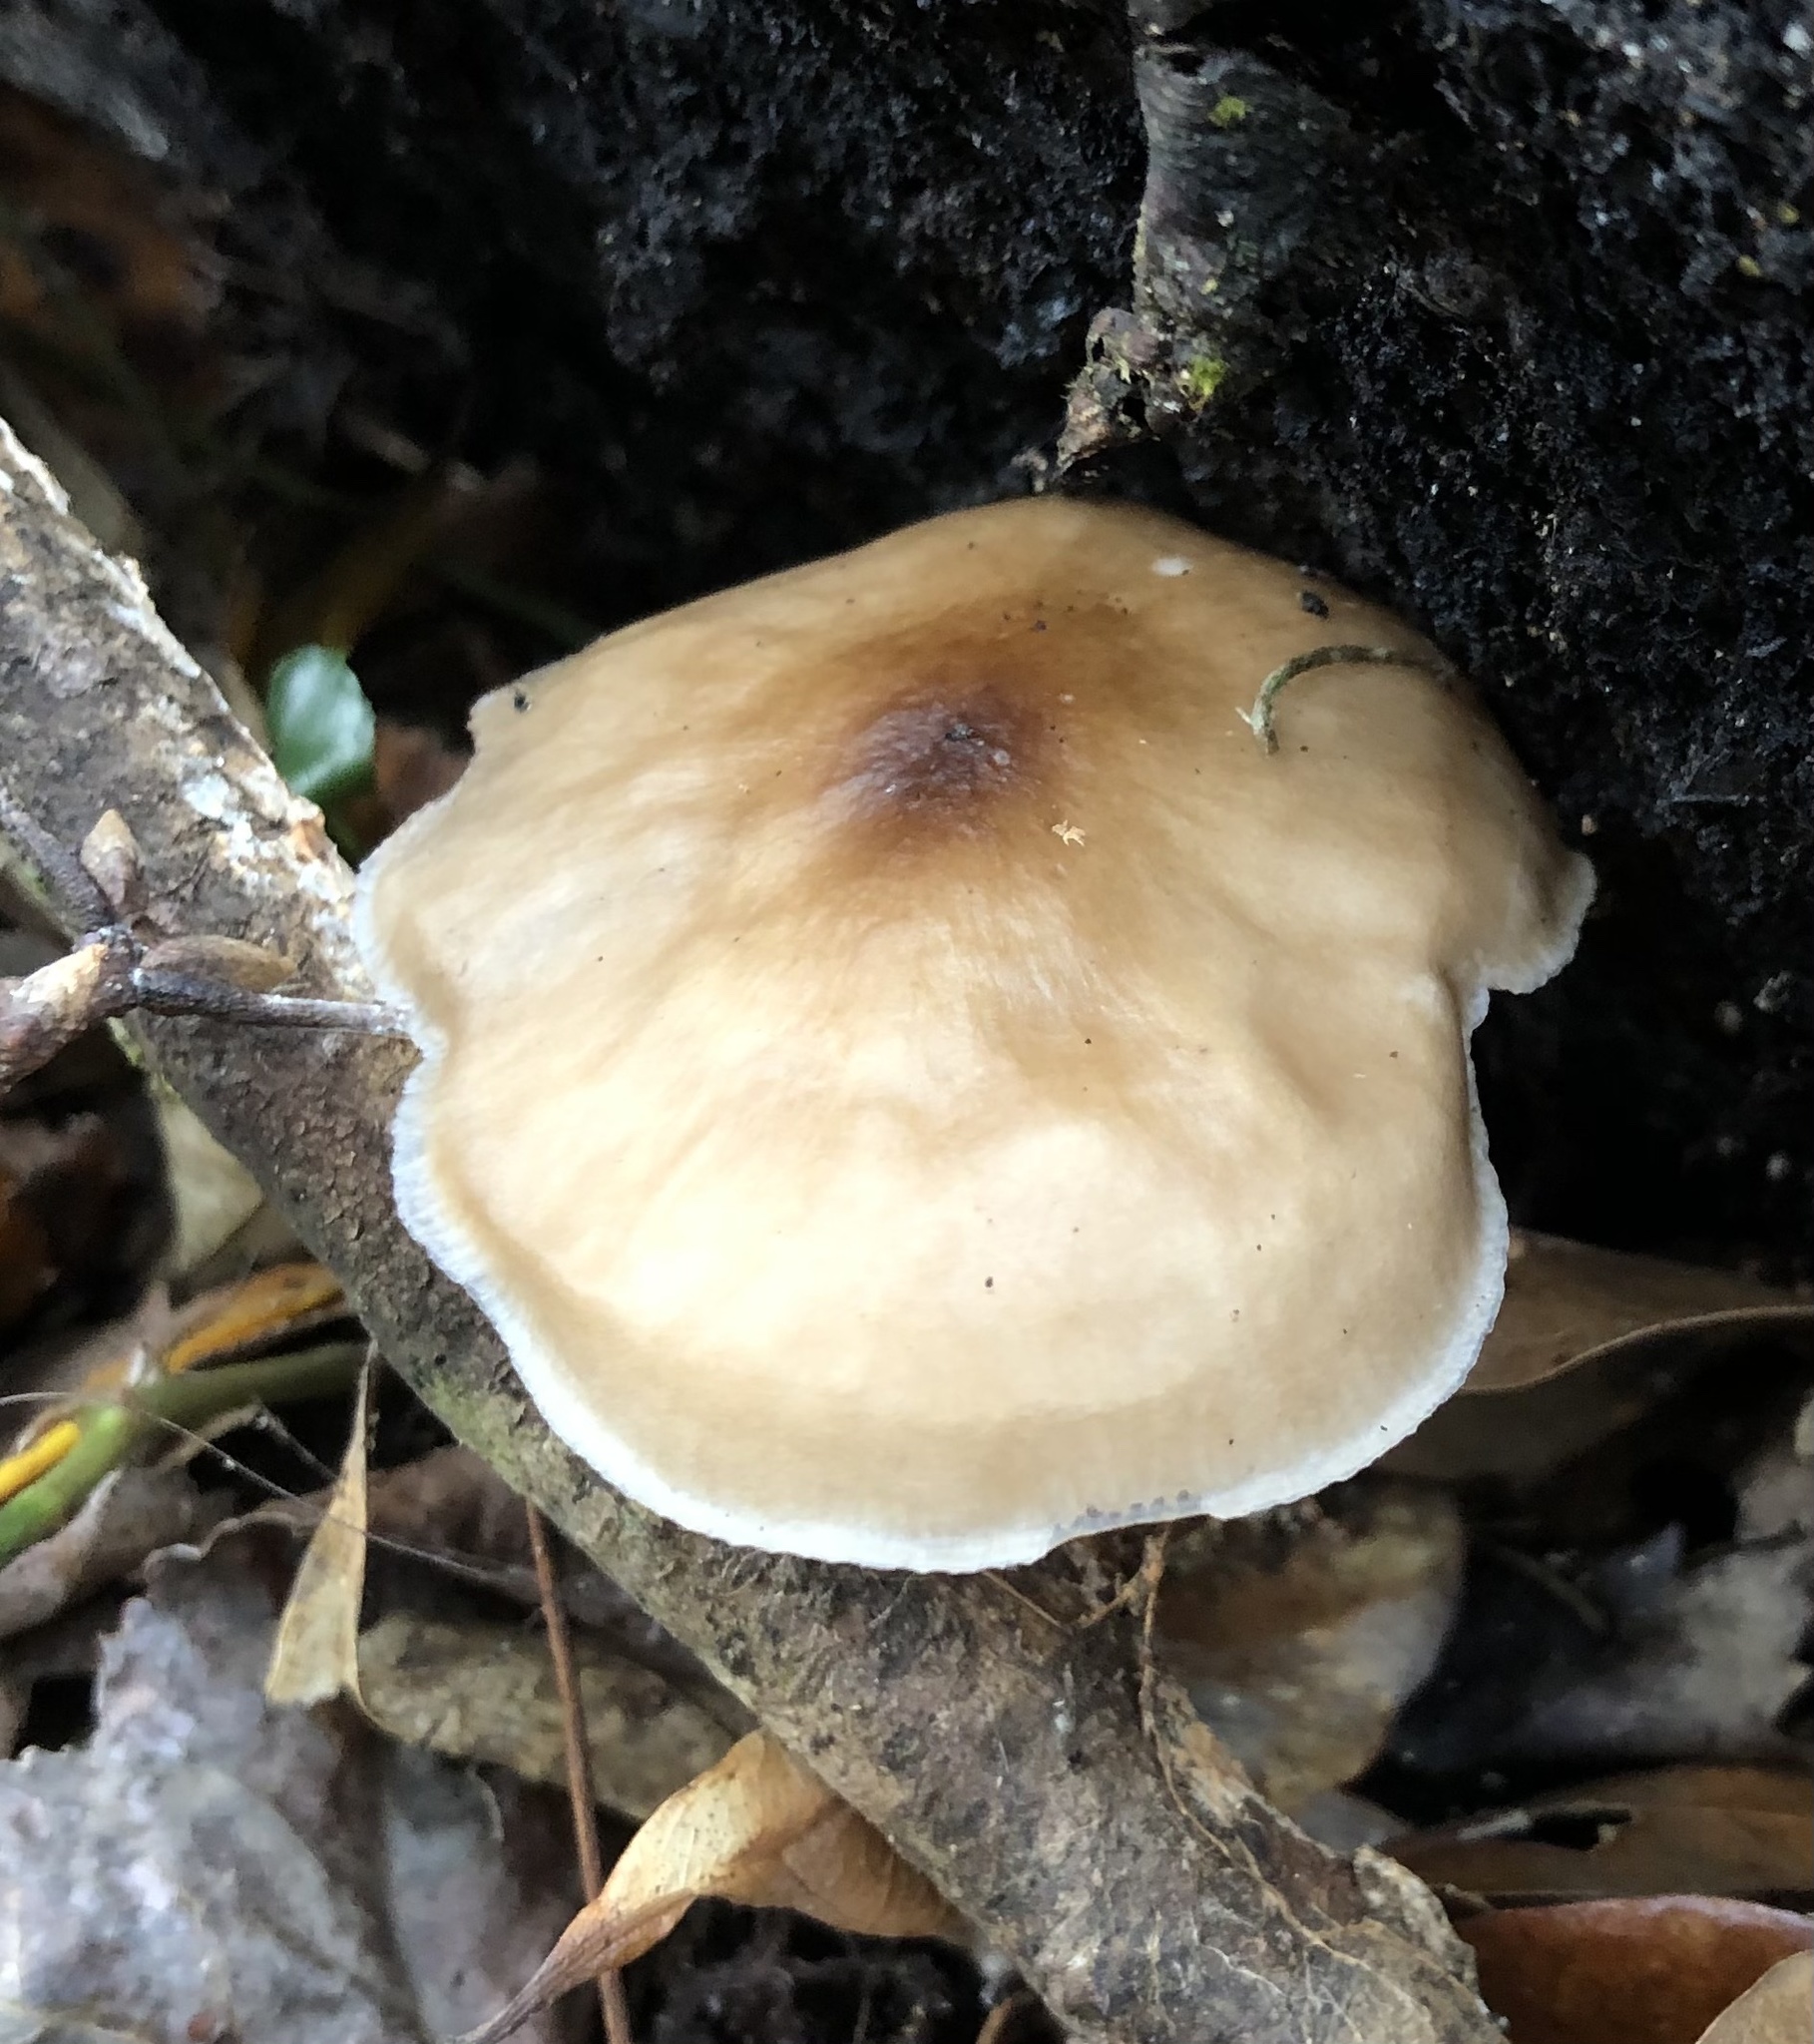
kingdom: Fungi
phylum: Basidiomycota
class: Agaricomycetes
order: Agaricales
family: Pluteaceae
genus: Pluteus
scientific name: Pluteus cervinus
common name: Deer shield
